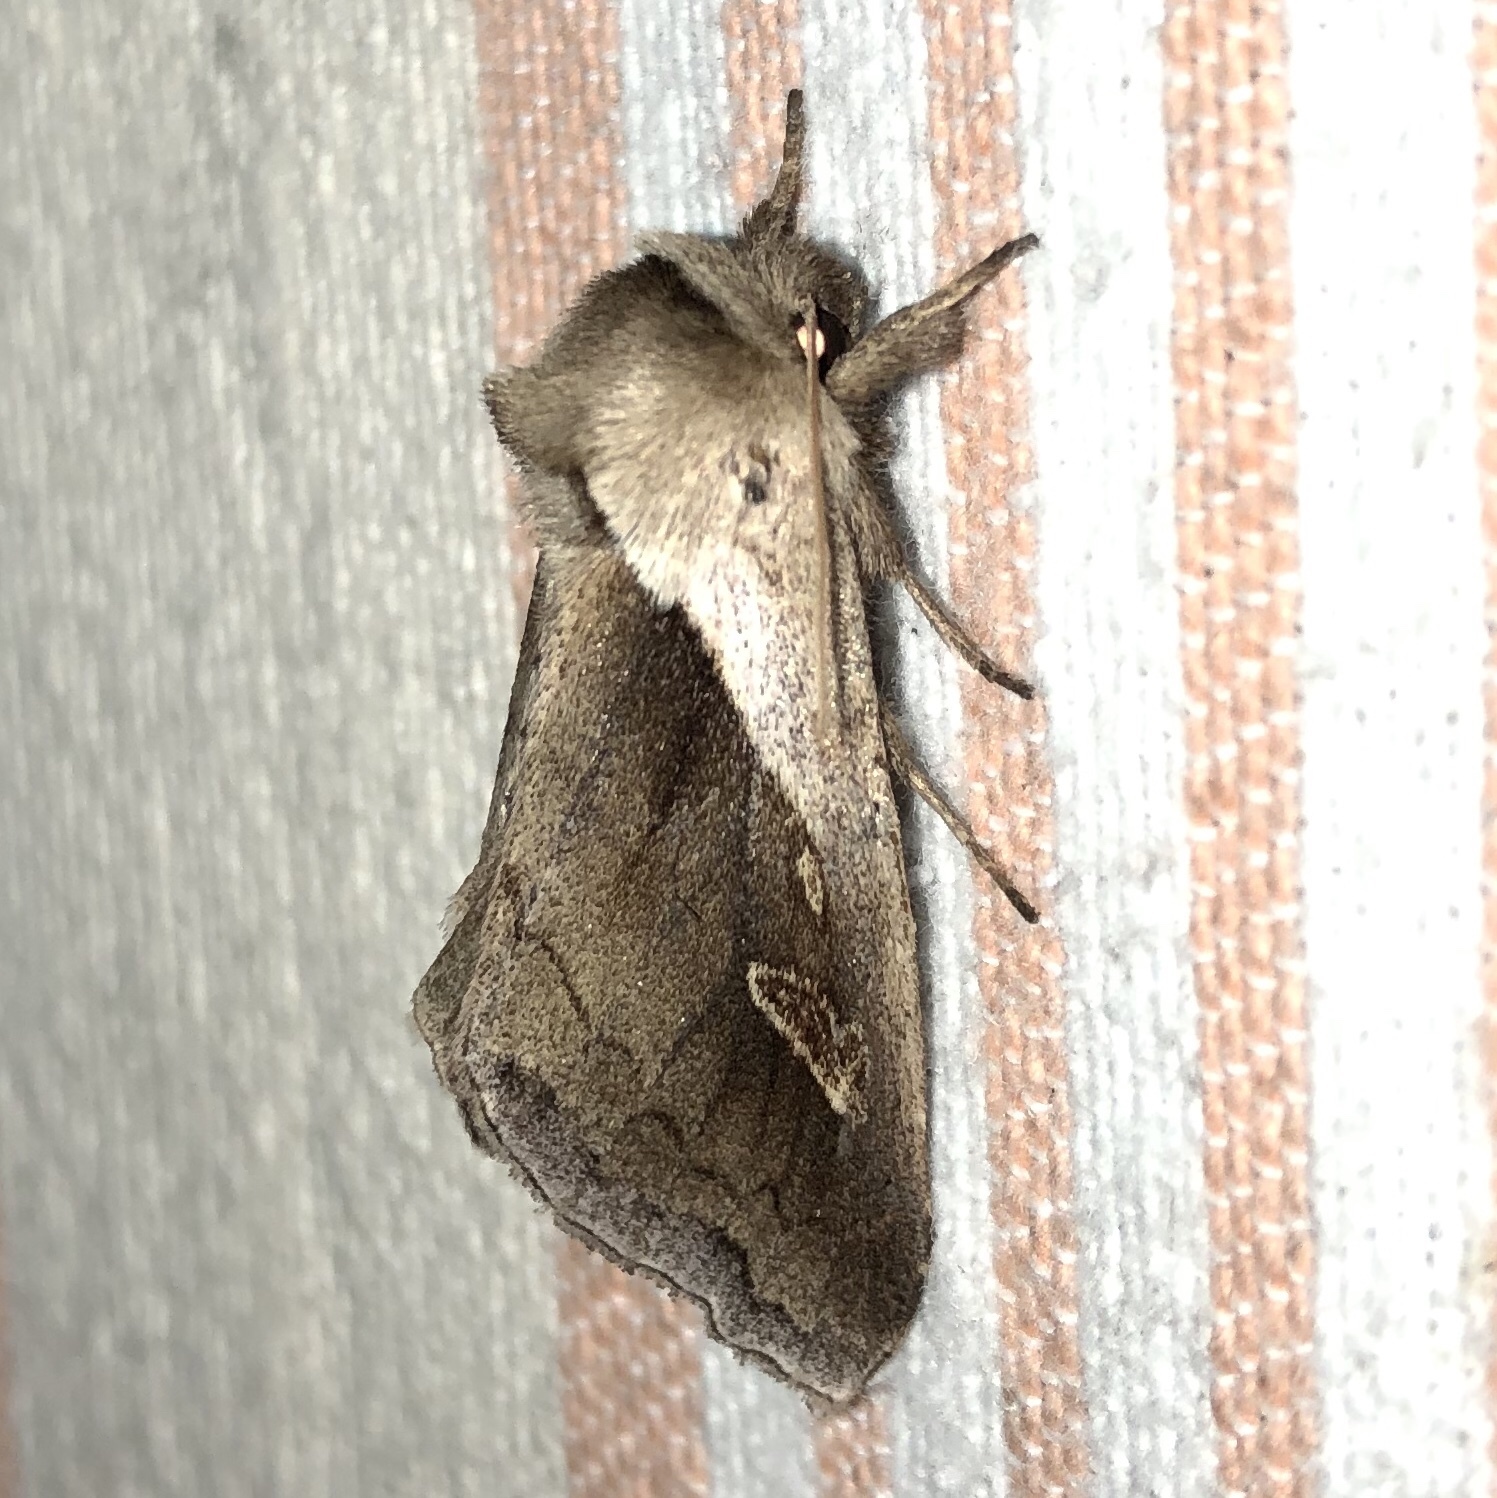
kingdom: Animalia
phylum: Arthropoda
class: Insecta
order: Lepidoptera
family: Noctuidae
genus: Bellura
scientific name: Bellura obliqua
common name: Cattail borer moth
